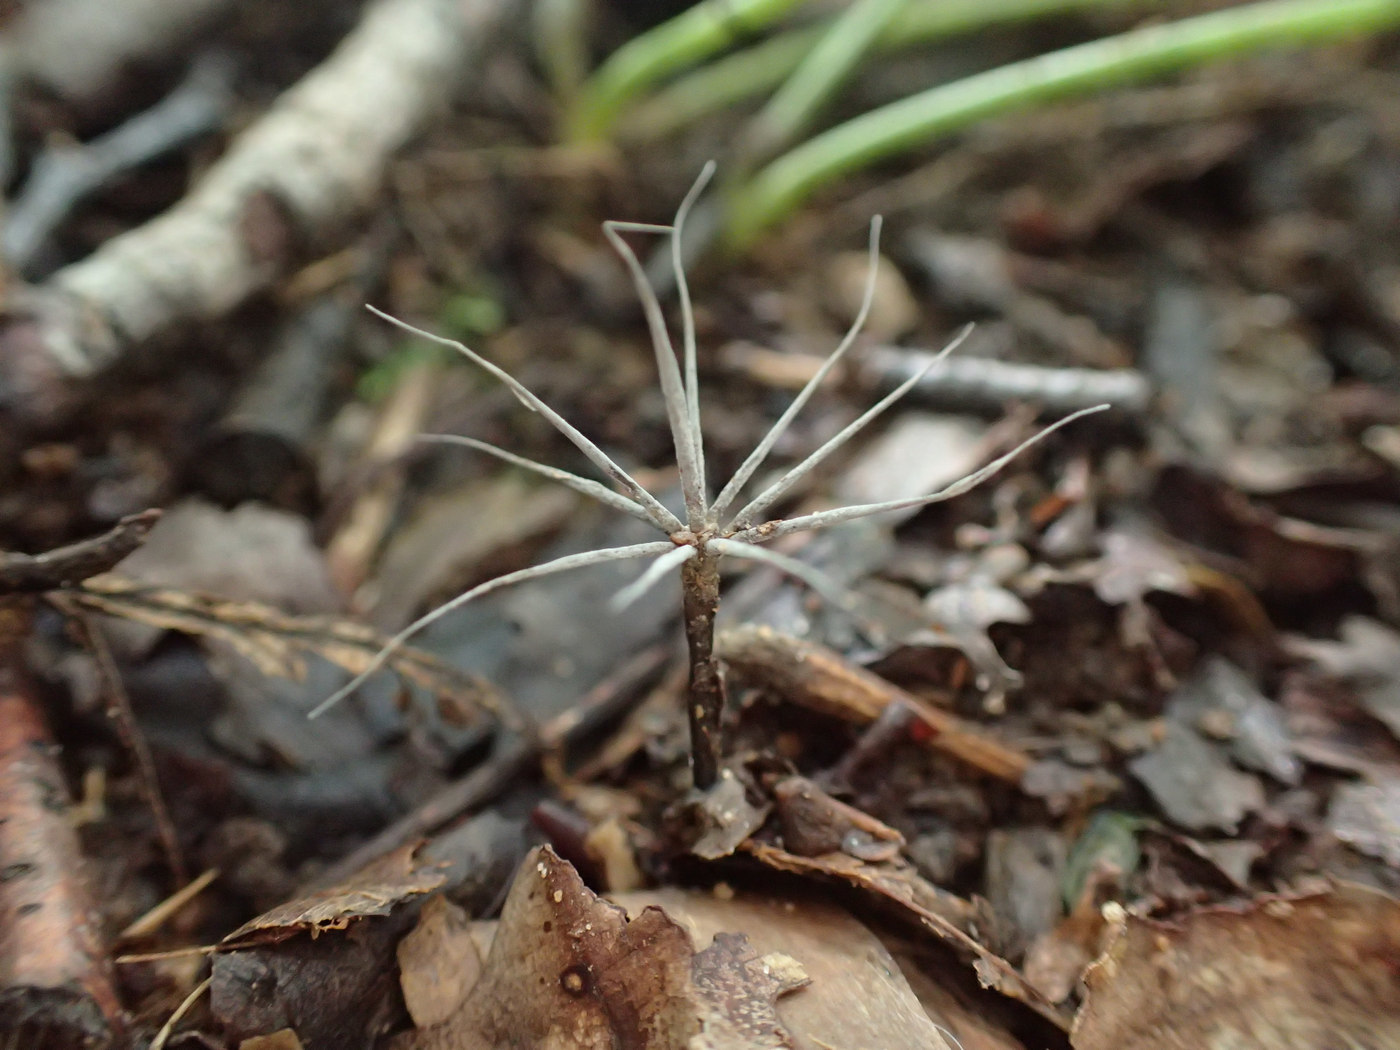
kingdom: Fungi
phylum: Ascomycota
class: Sordariomycetes
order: Xylariales
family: Xylariaceae
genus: Xylaria
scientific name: Xylaria tentaculata
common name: Fairy sparklers
